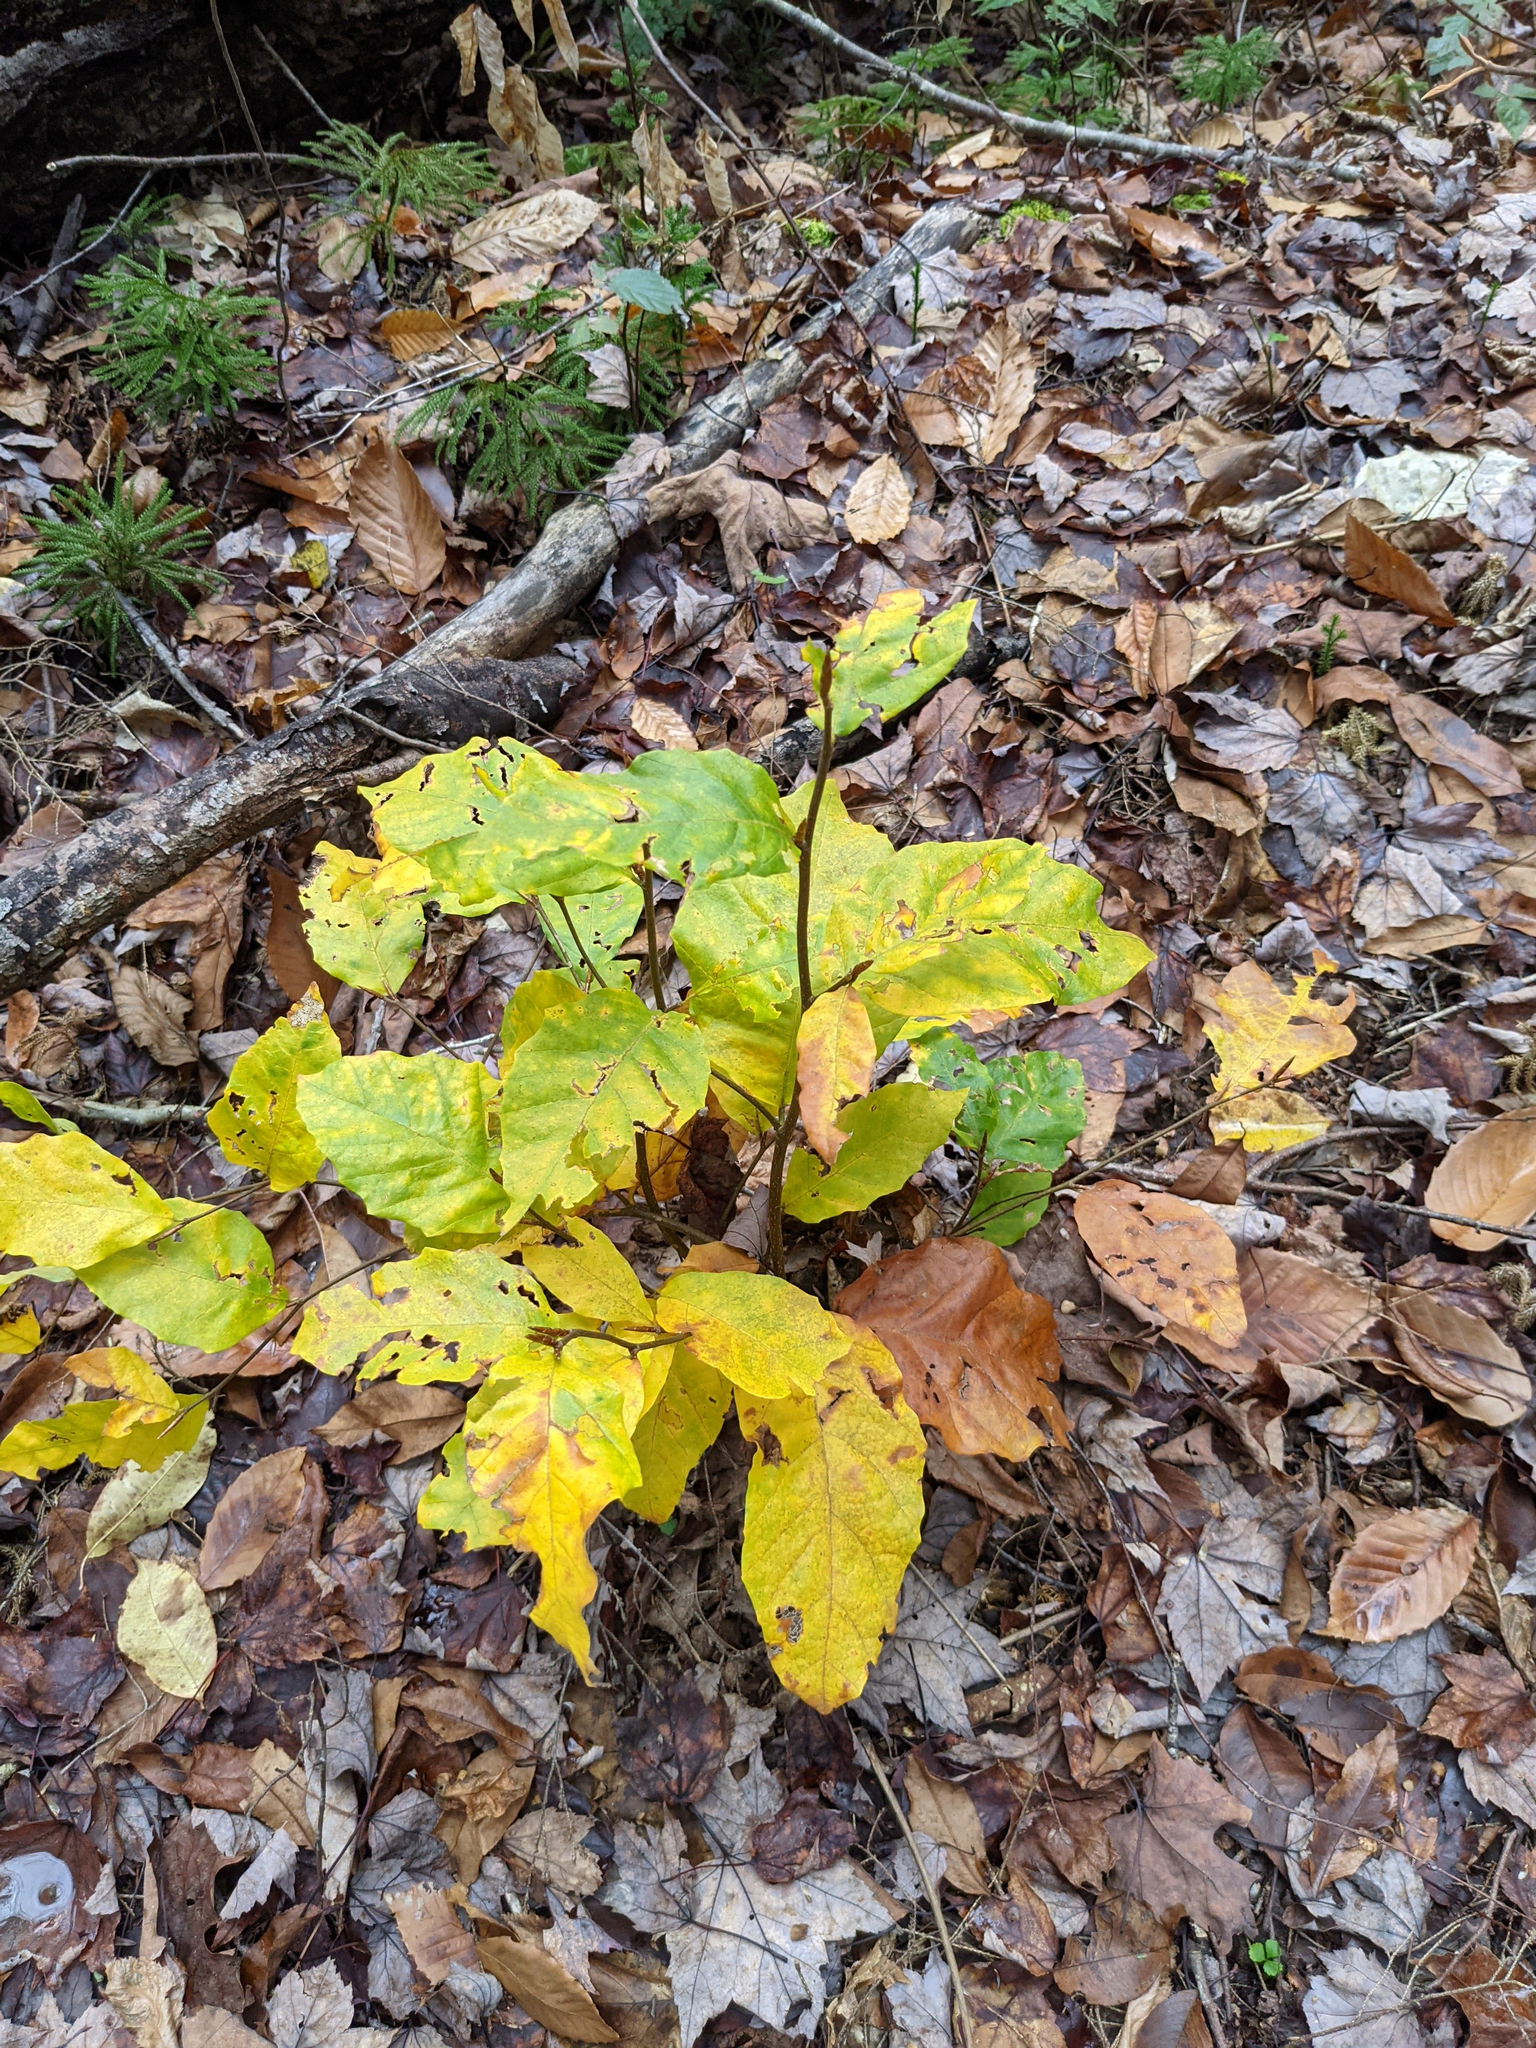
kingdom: Plantae
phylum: Tracheophyta
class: Magnoliopsida
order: Fagales
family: Fagaceae
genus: Fagus
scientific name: Fagus grandifolia
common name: American beech
